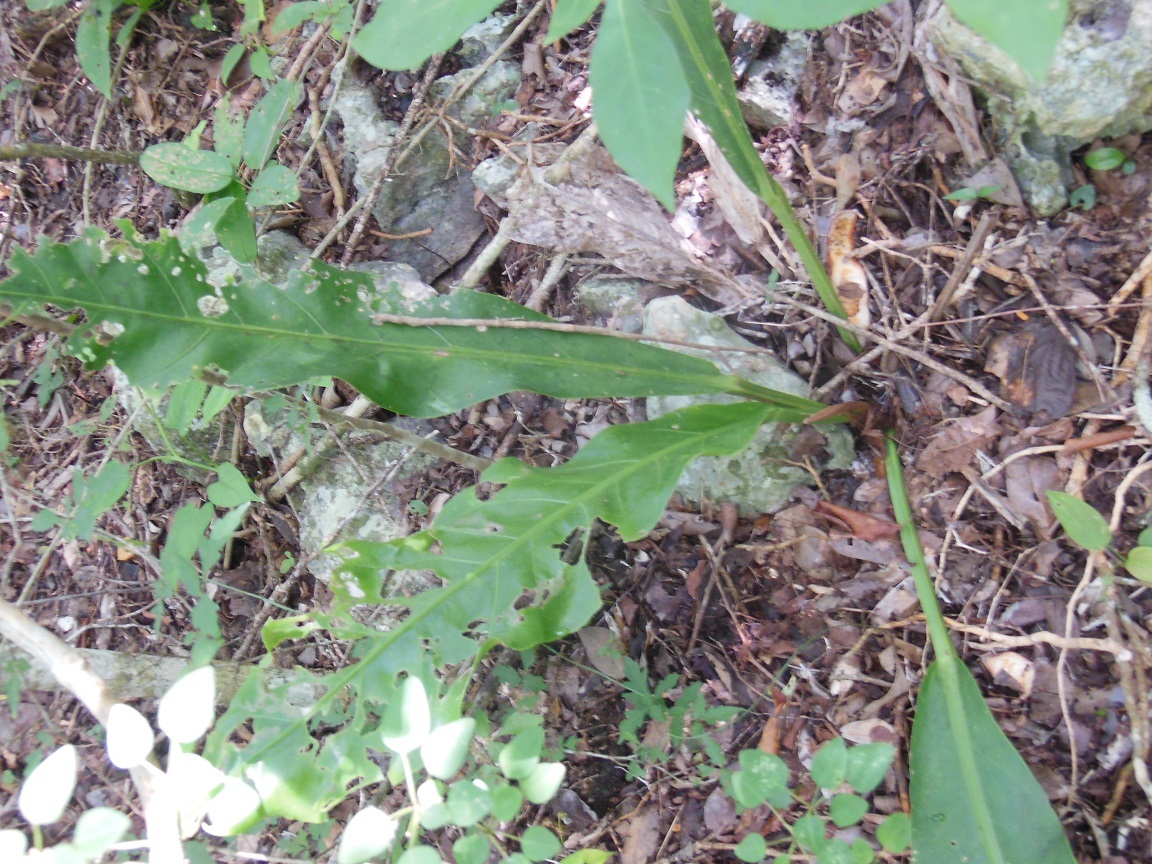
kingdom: Plantae
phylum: Tracheophyta
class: Liliopsida
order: Alismatales
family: Araceae
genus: Anthurium
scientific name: Anthurium schlechtendalii
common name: Laceleaf
